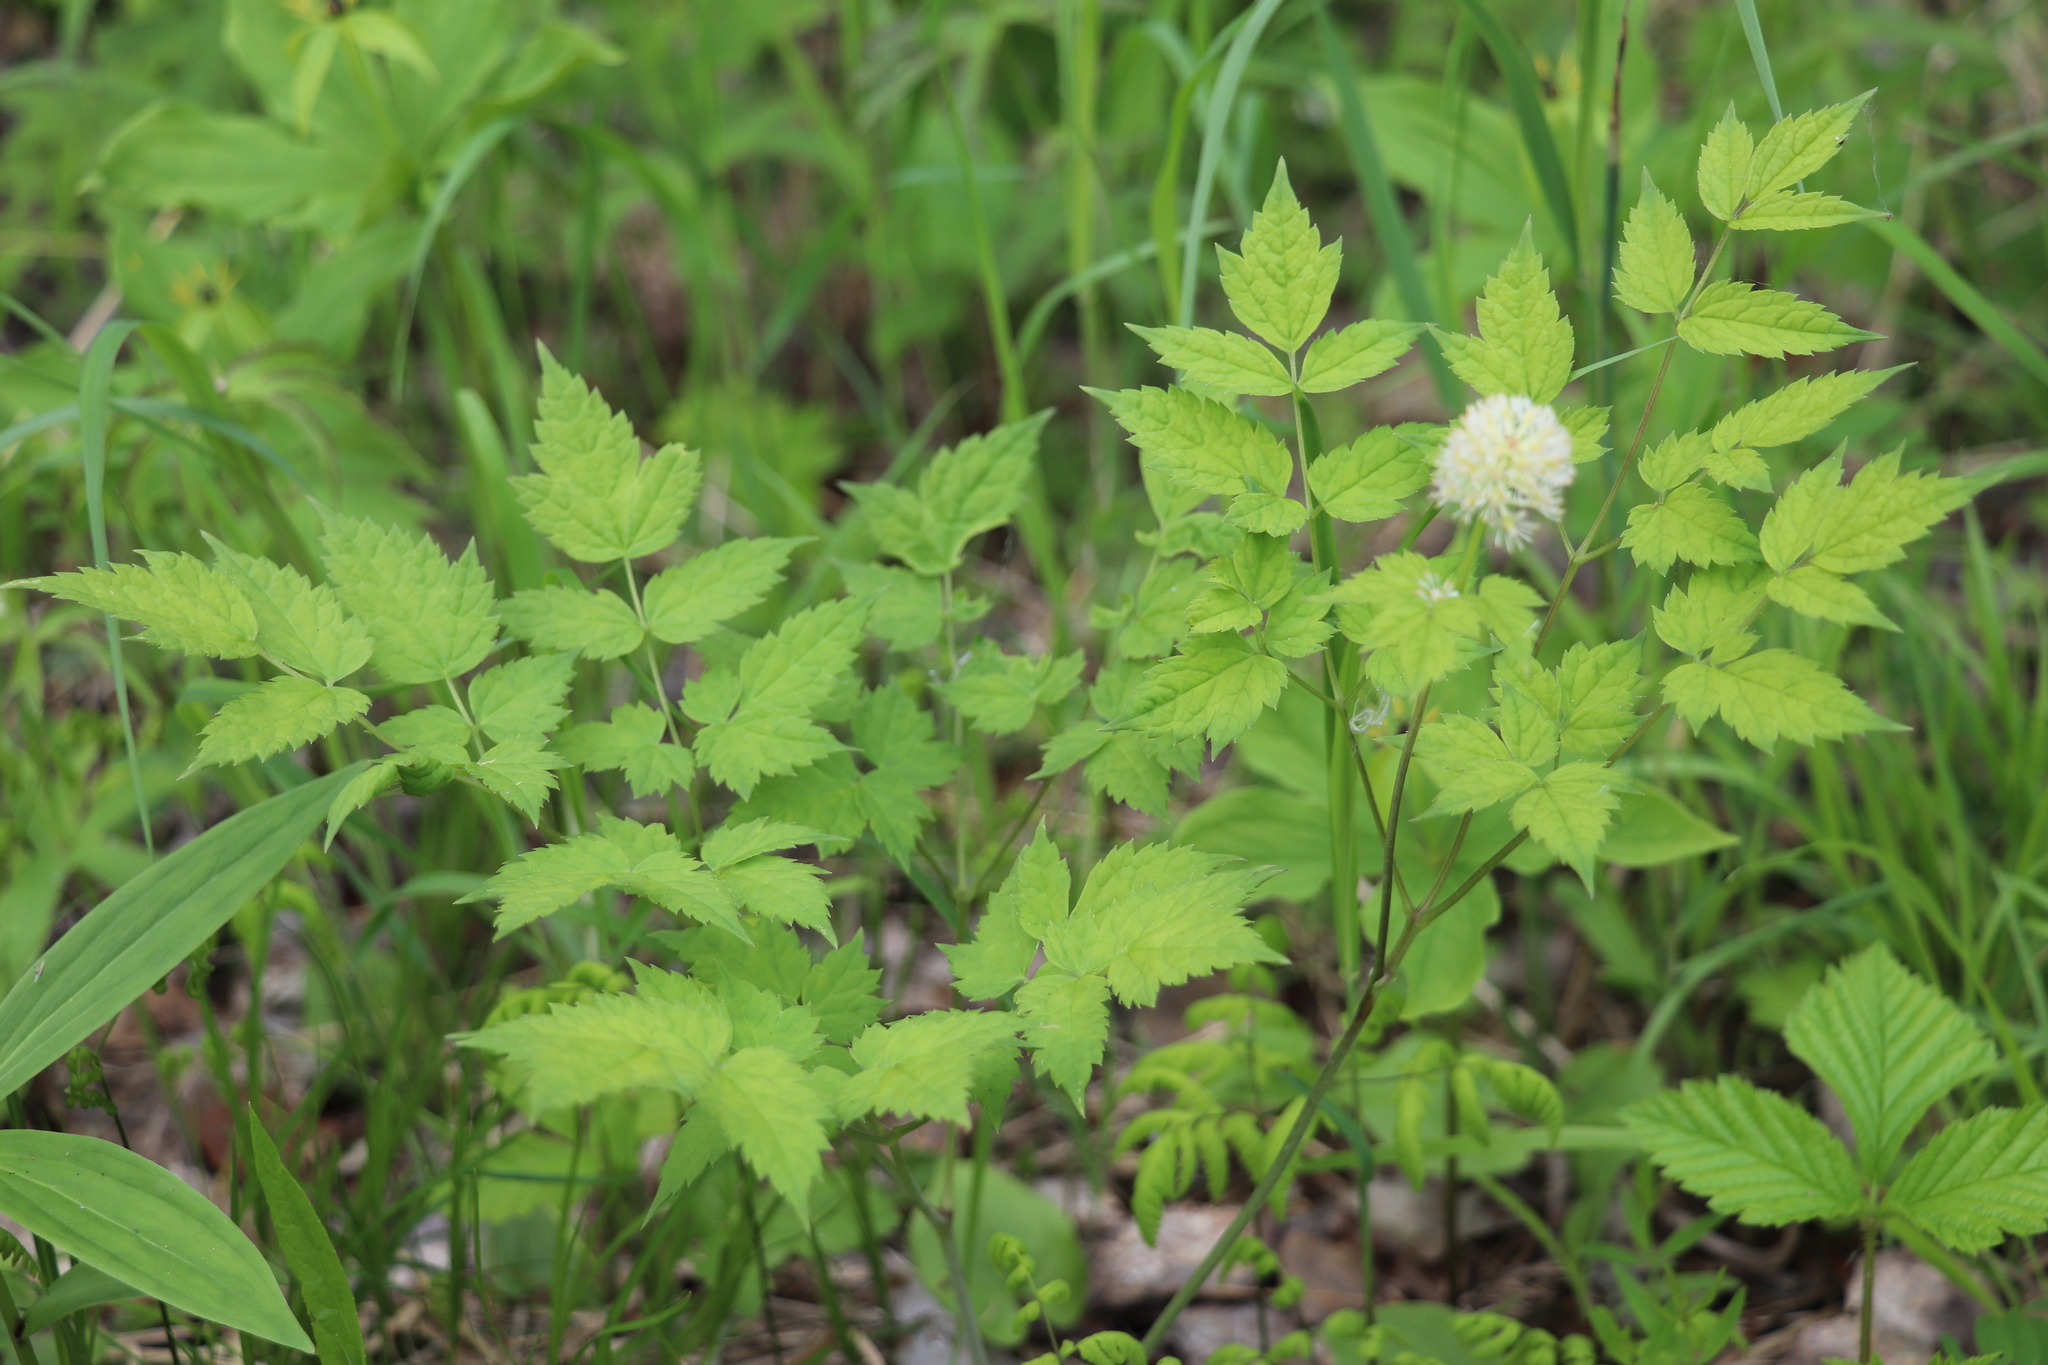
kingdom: Plantae
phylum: Tracheophyta
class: Magnoliopsida
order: Ranunculales
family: Ranunculaceae
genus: Actaea
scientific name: Actaea erythrocarpa
